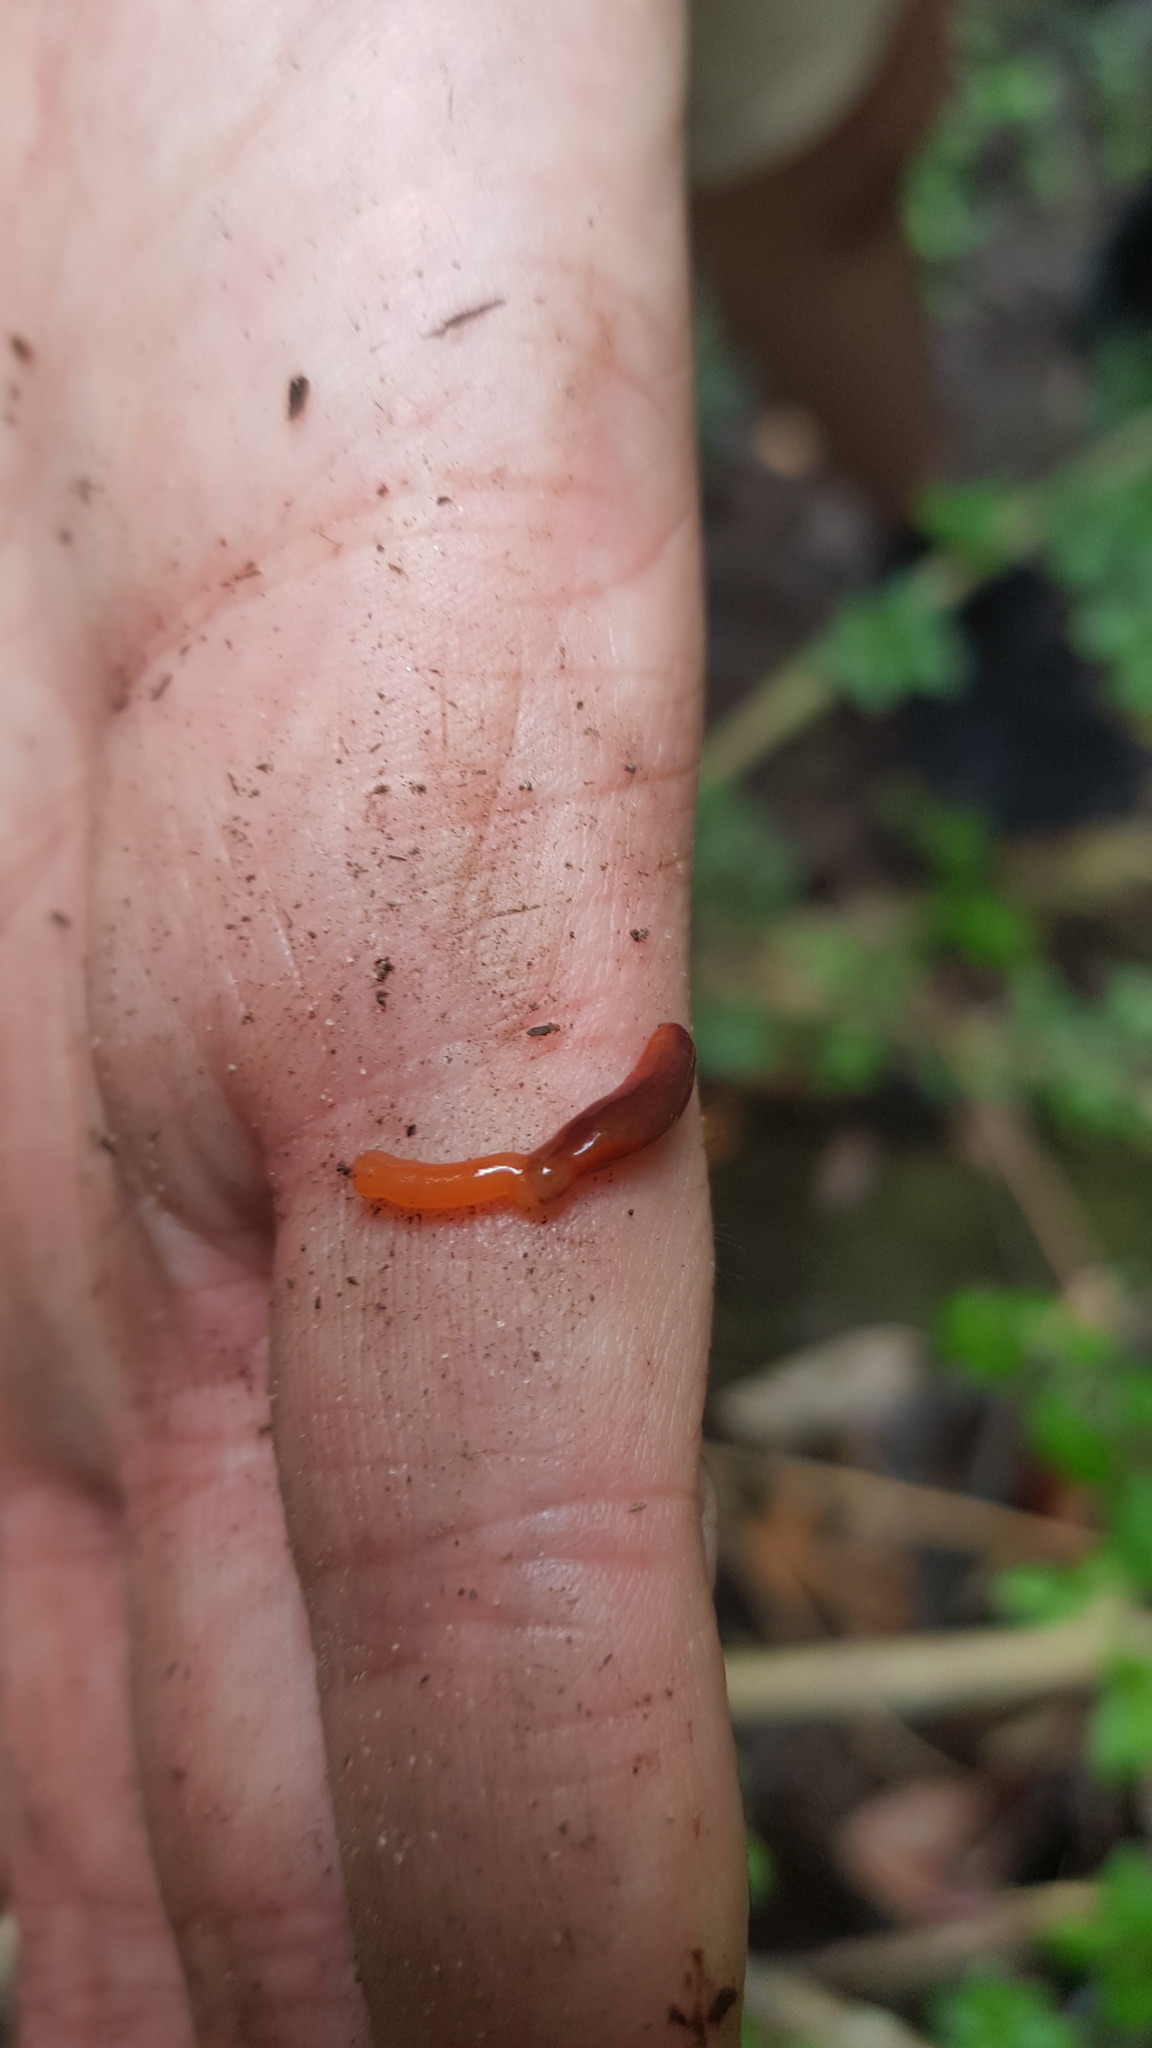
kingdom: Animalia
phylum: Nemertea
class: Hoplonemertea
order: Monostilifera
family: Acteonemertidae
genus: Argonemertes
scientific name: Argonemertes hillii
